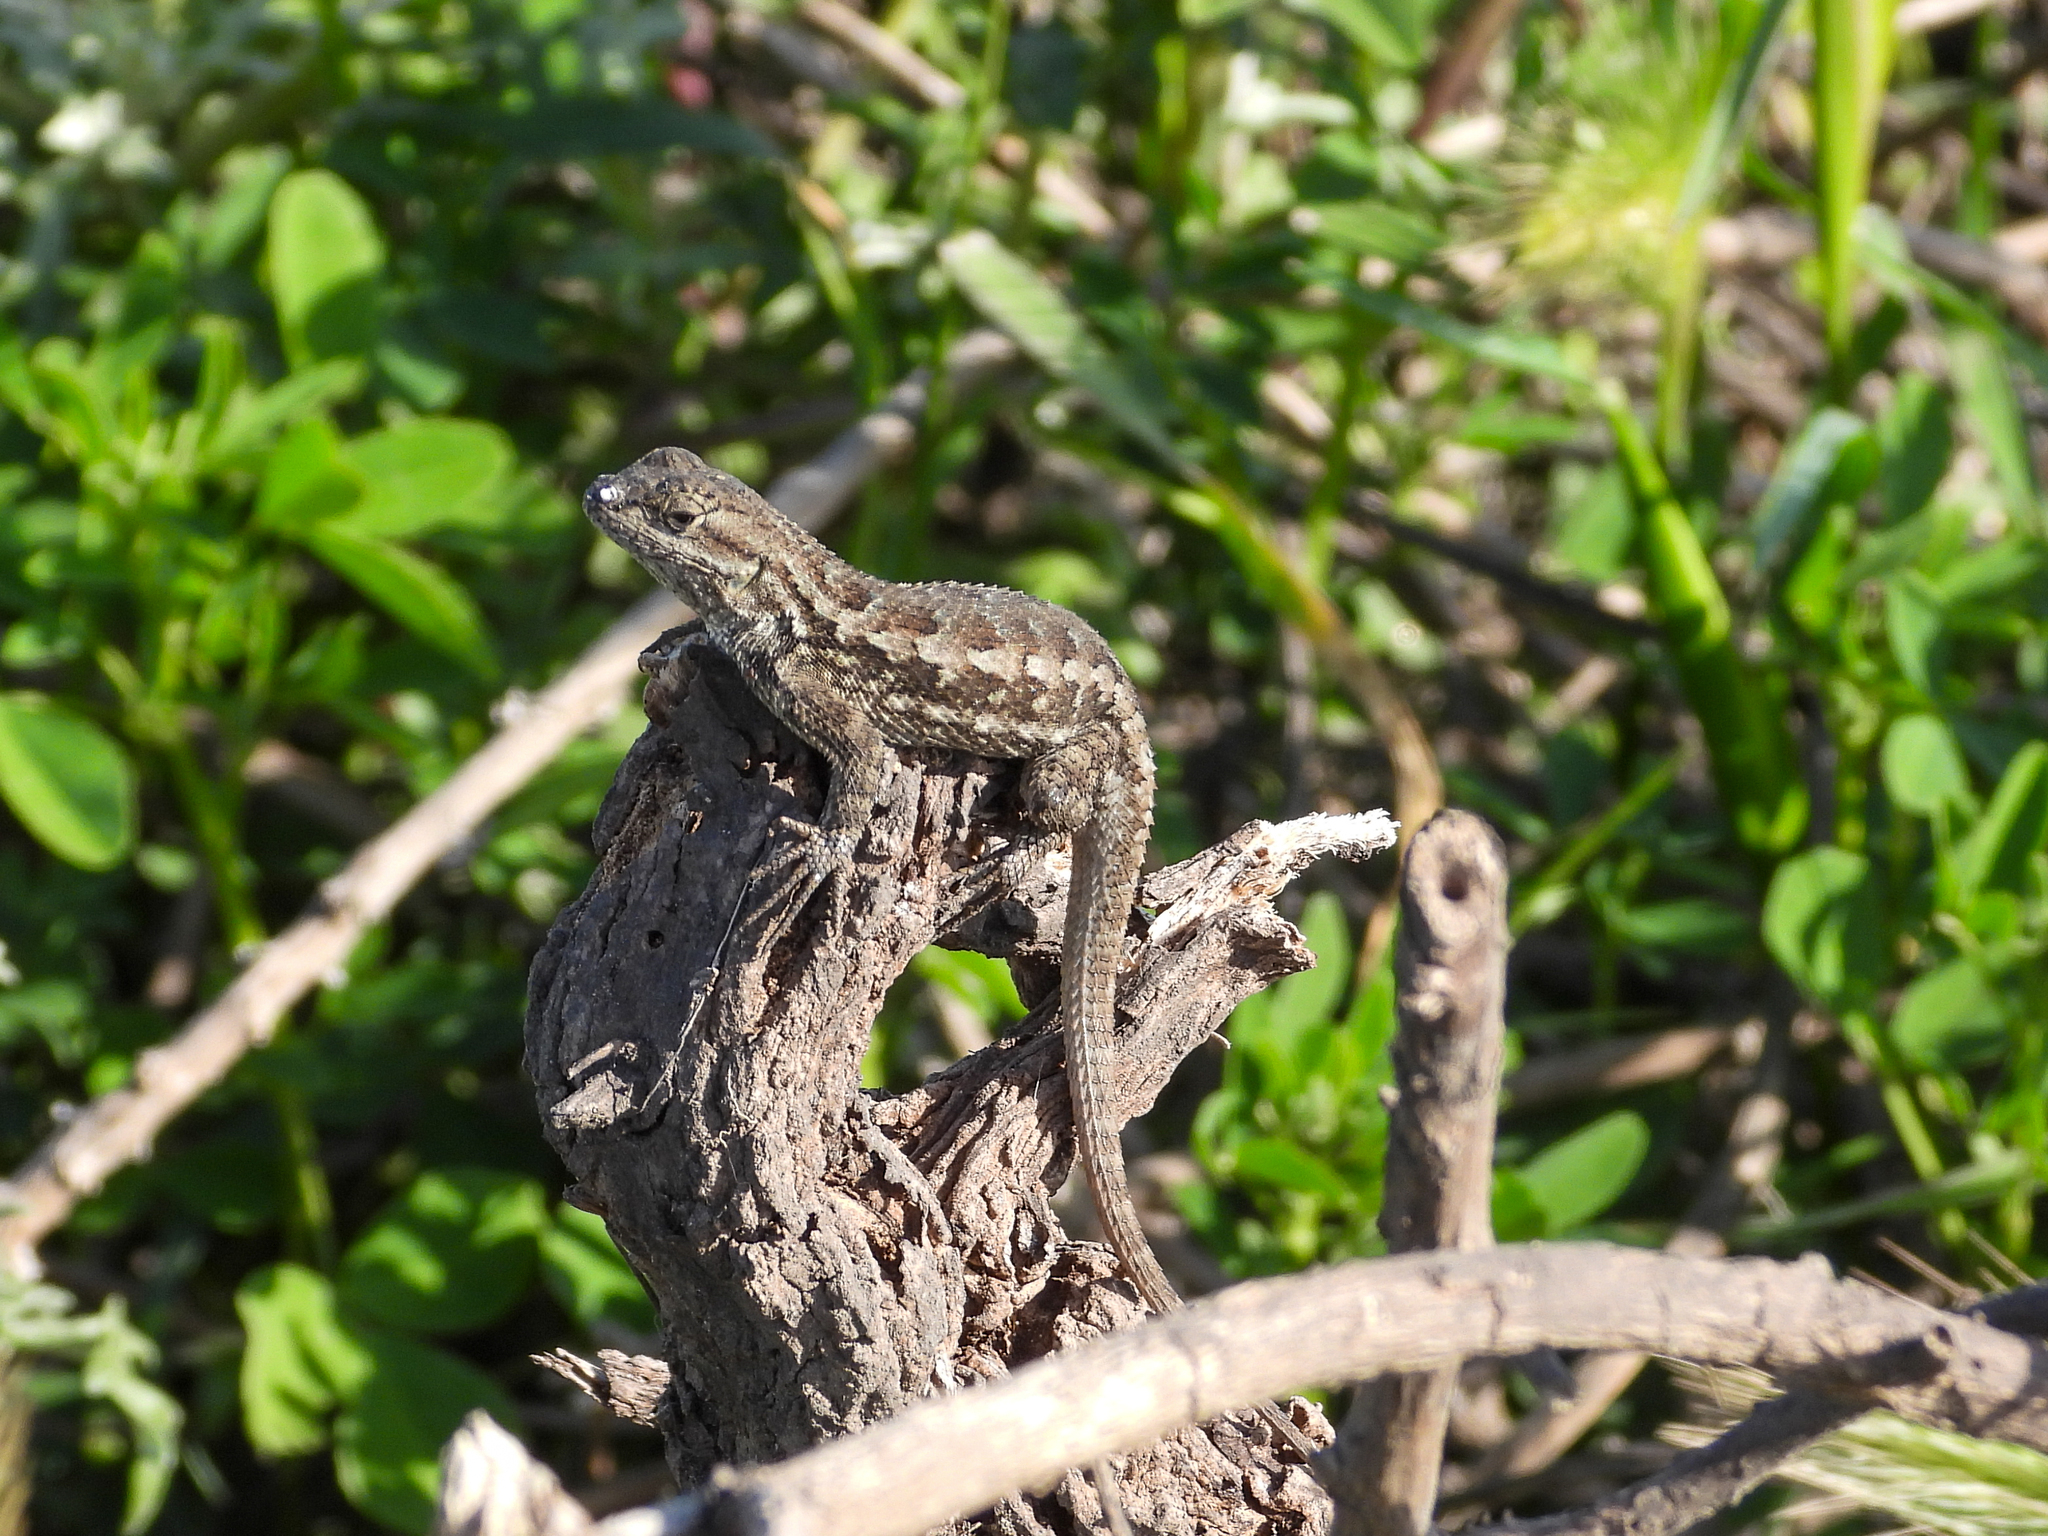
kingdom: Animalia
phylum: Chordata
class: Squamata
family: Phrynosomatidae
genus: Sceloporus
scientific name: Sceloporus occidentalis
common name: Western fence lizard
